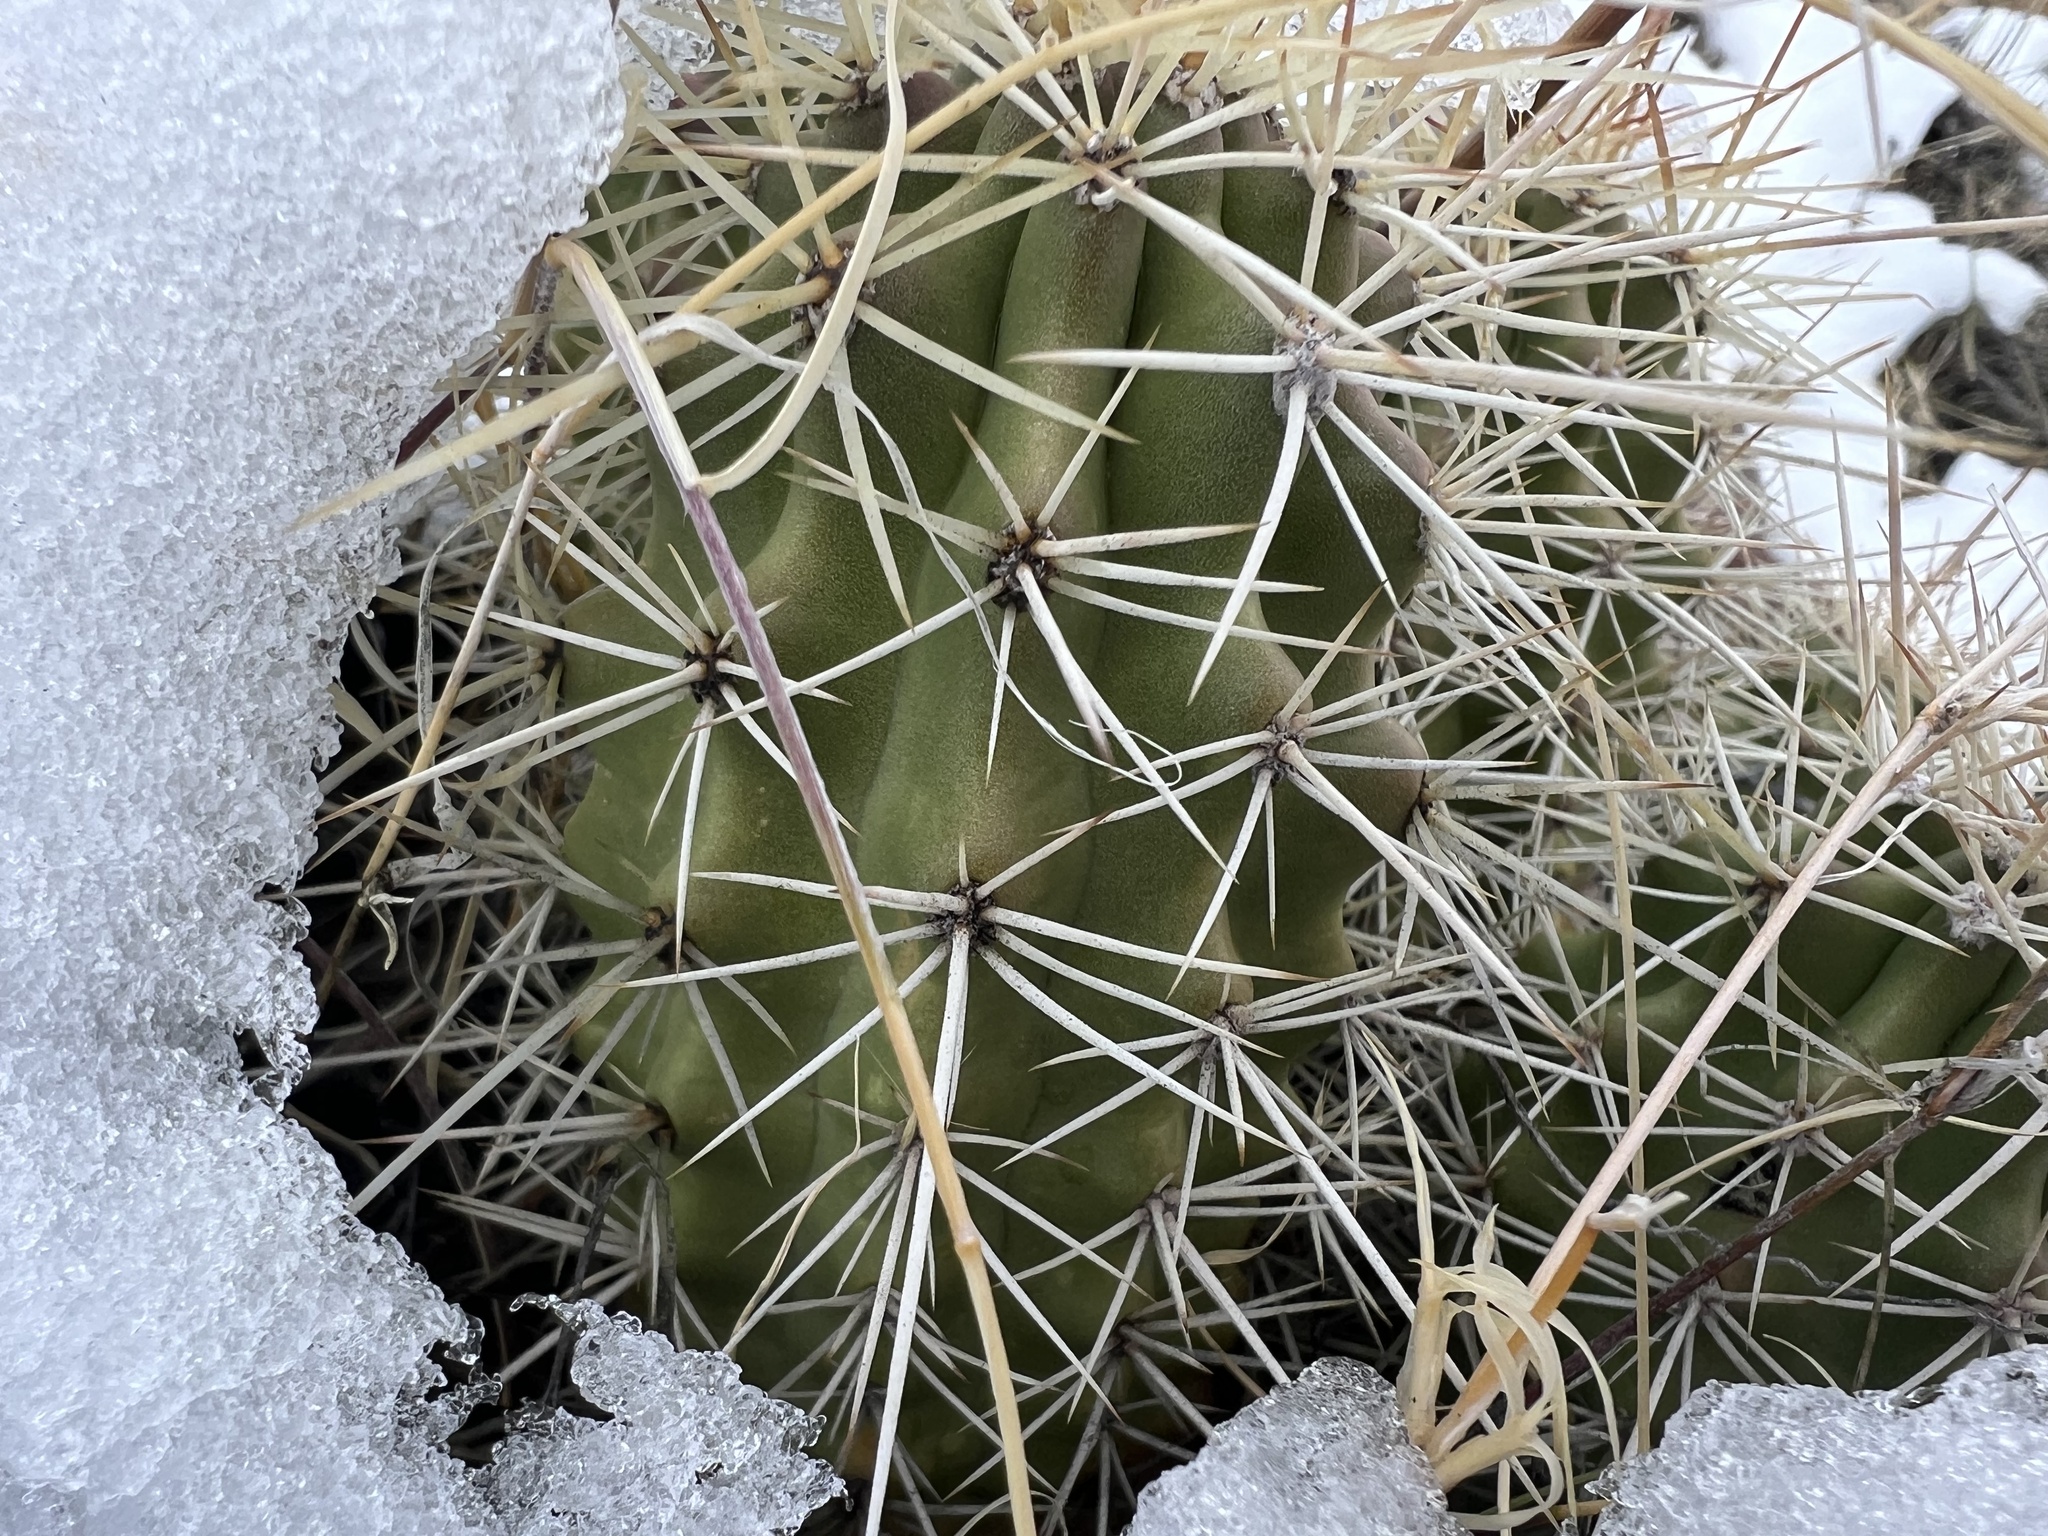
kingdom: Plantae
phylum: Tracheophyta
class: Magnoliopsida
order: Caryophyllales
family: Cactaceae
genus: Echinocereus
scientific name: Echinocereus triglochidiatus
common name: Claretcup hedgehog
